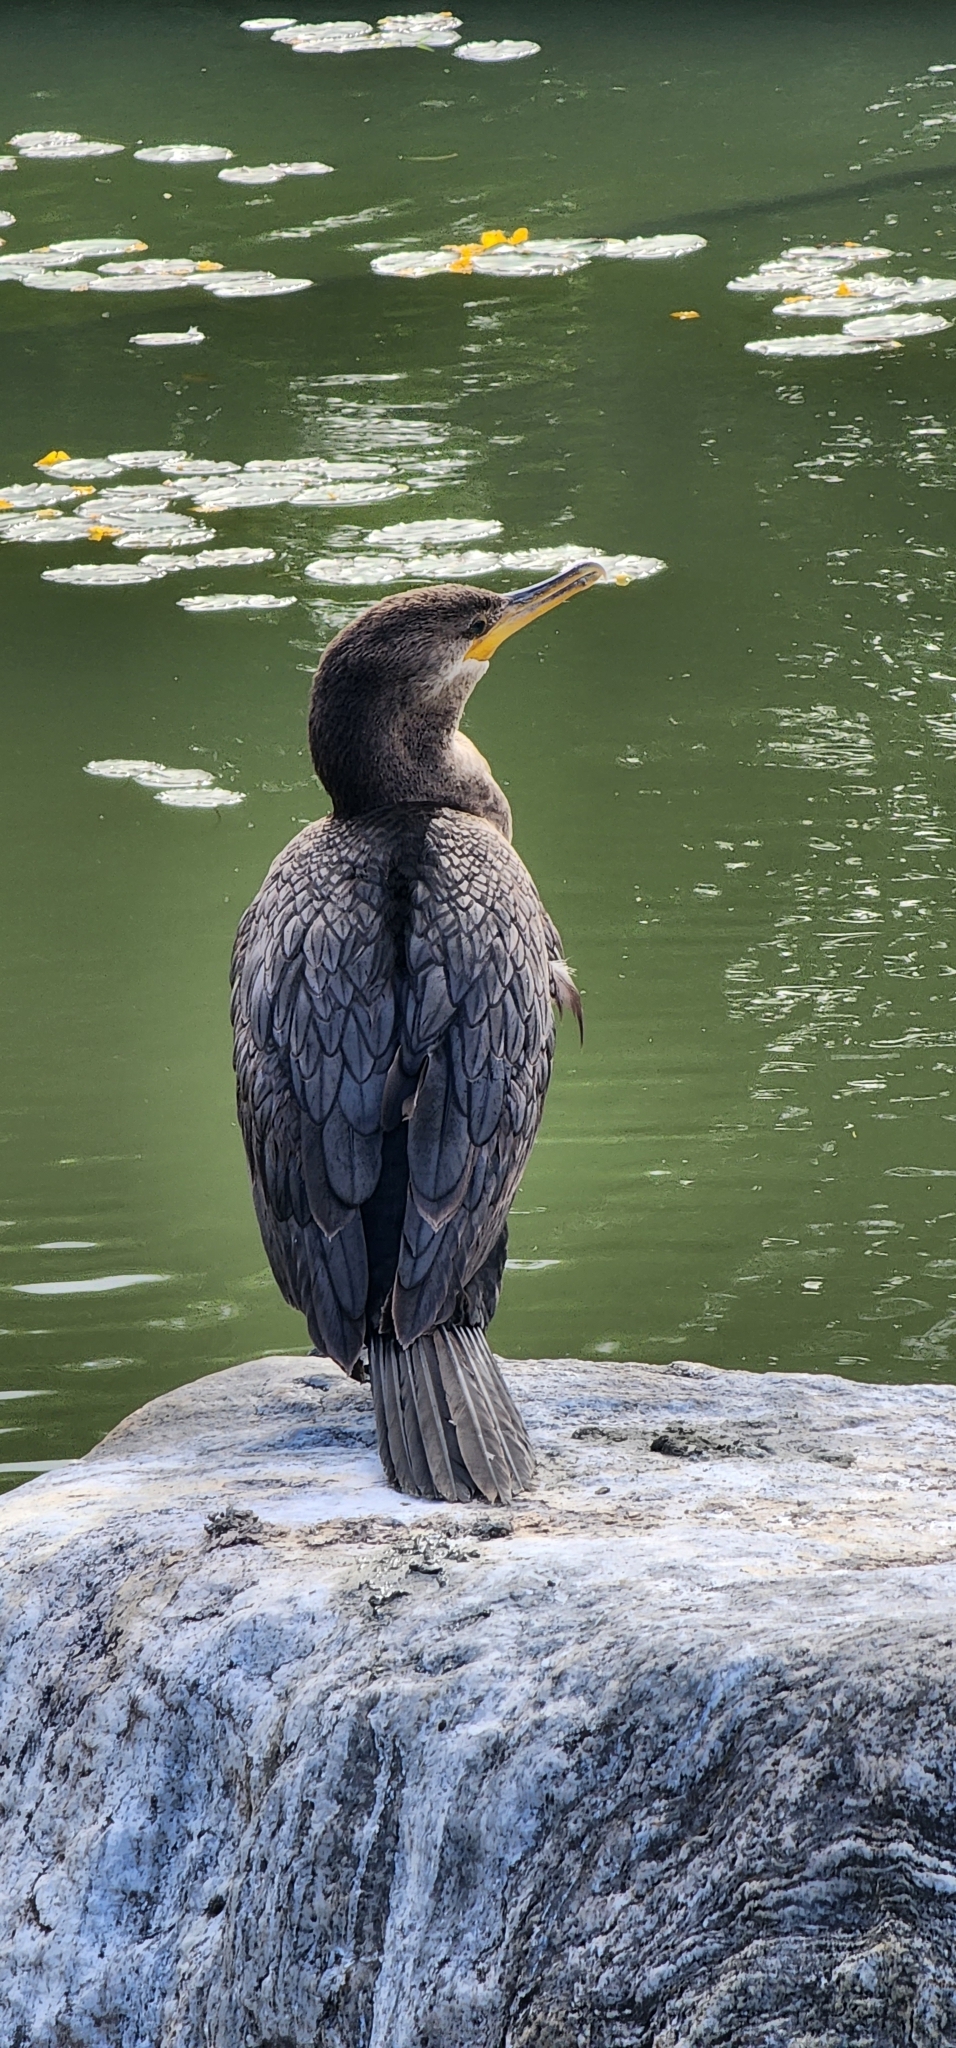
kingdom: Animalia
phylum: Chordata
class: Aves
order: Suliformes
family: Phalacrocoracidae
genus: Phalacrocorax
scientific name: Phalacrocorax brasilianus
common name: Neotropic cormorant
